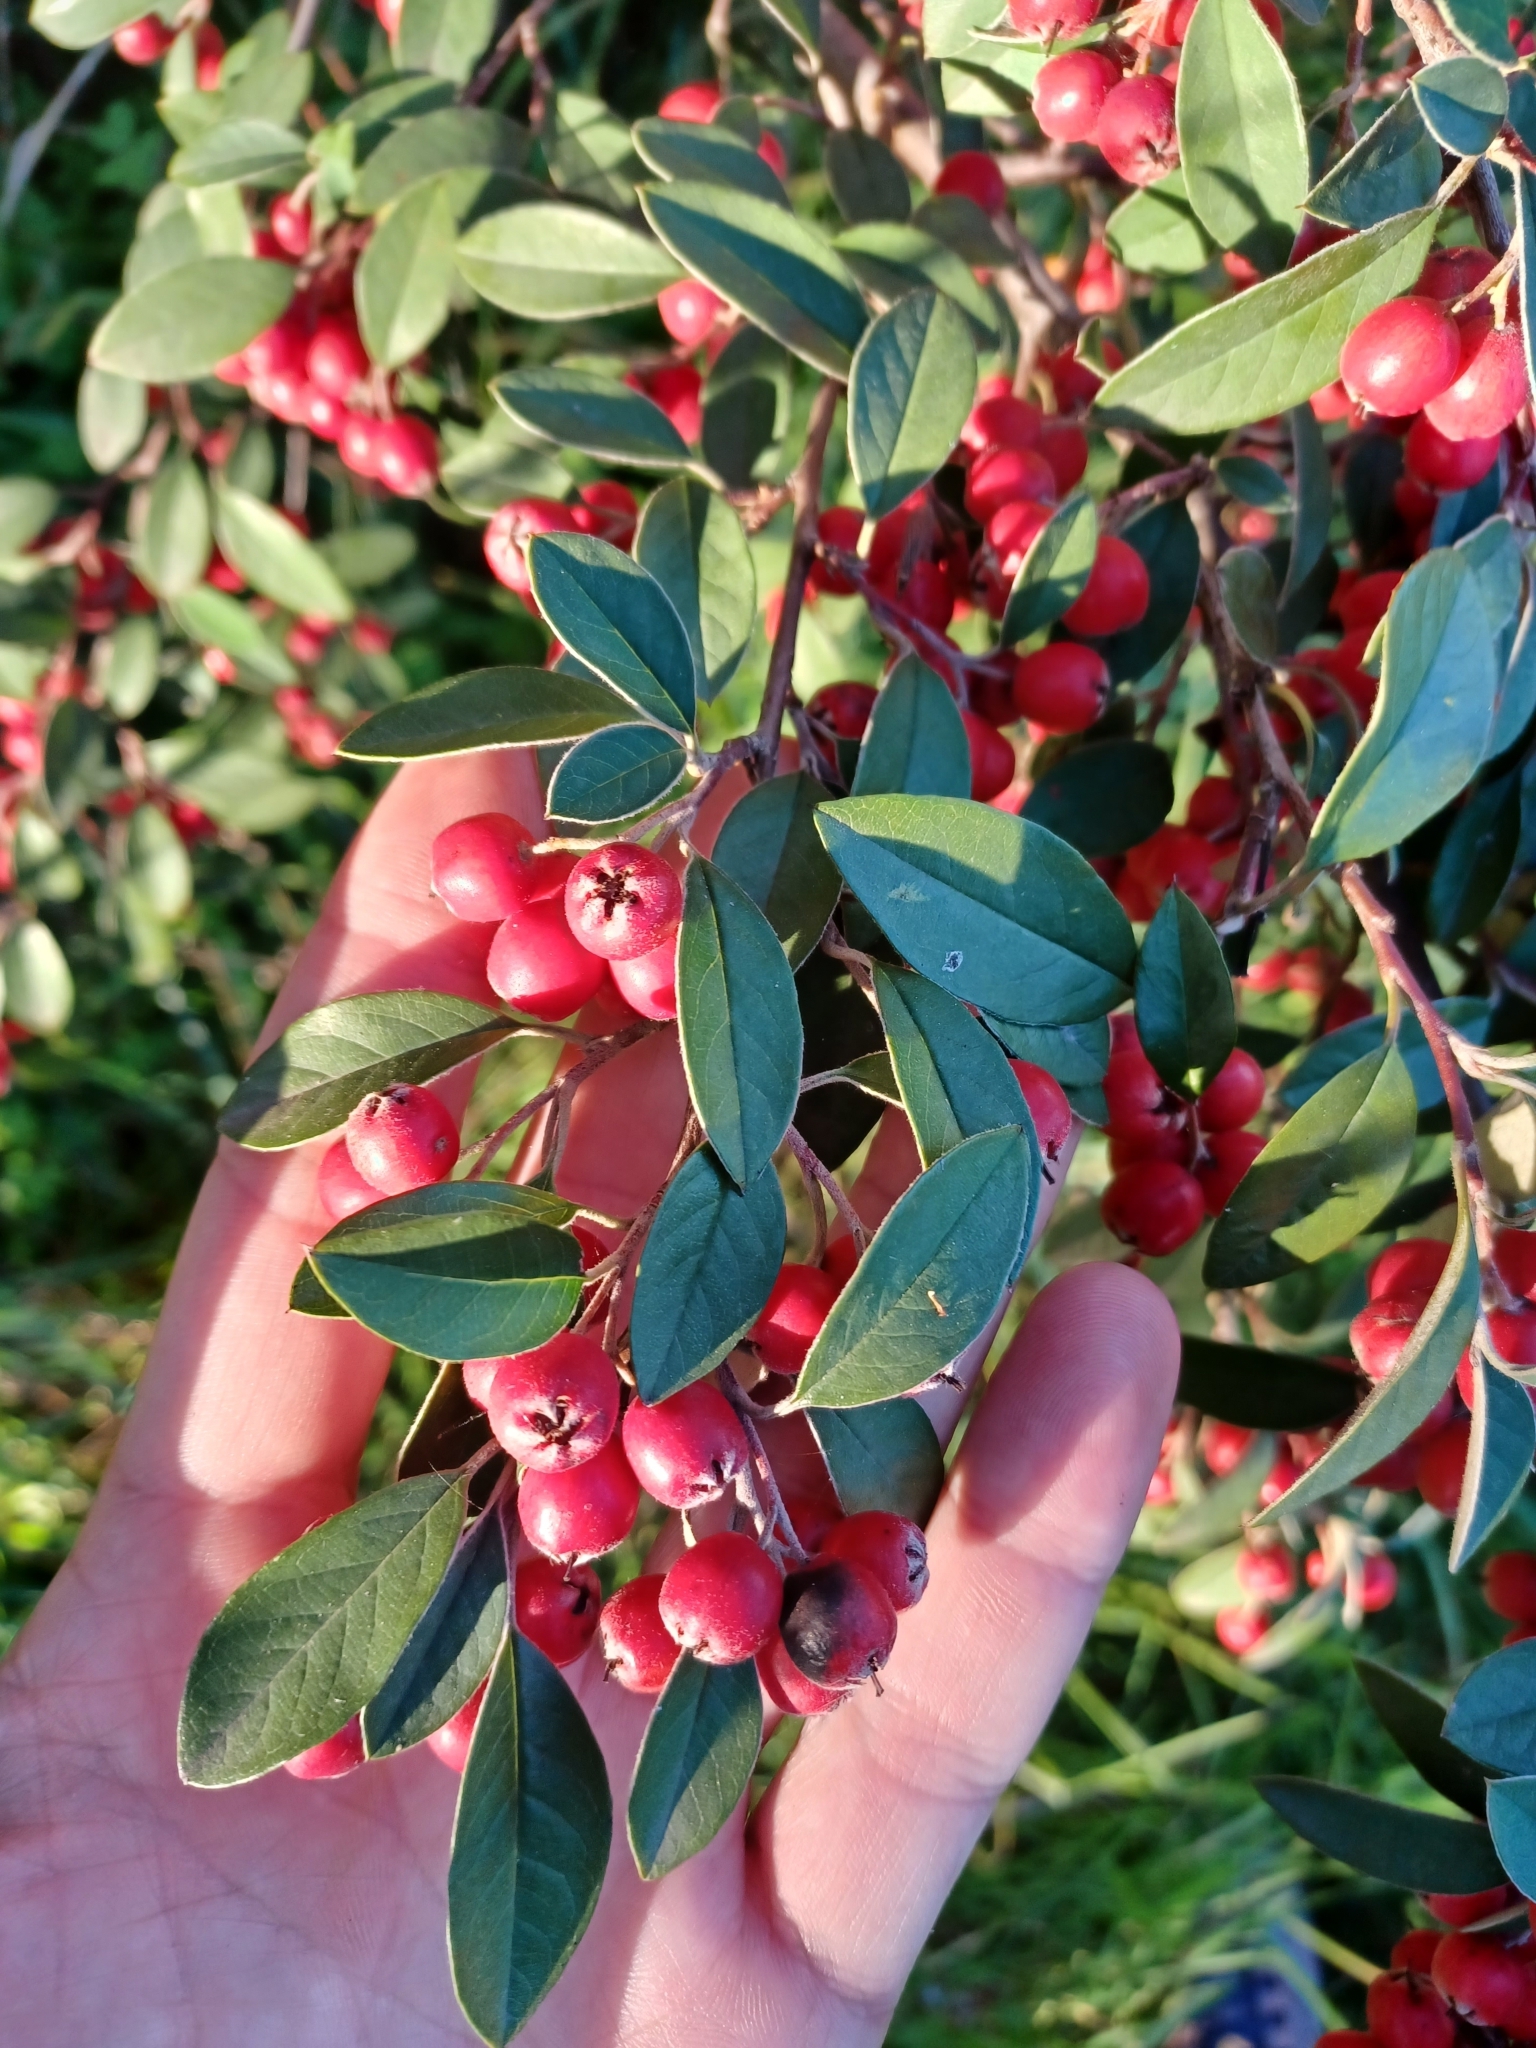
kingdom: Plantae
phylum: Tracheophyta
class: Magnoliopsida
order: Rosales
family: Rosaceae
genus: Cotoneaster
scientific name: Cotoneaster pannosus
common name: Silverleaf cotoneaster
